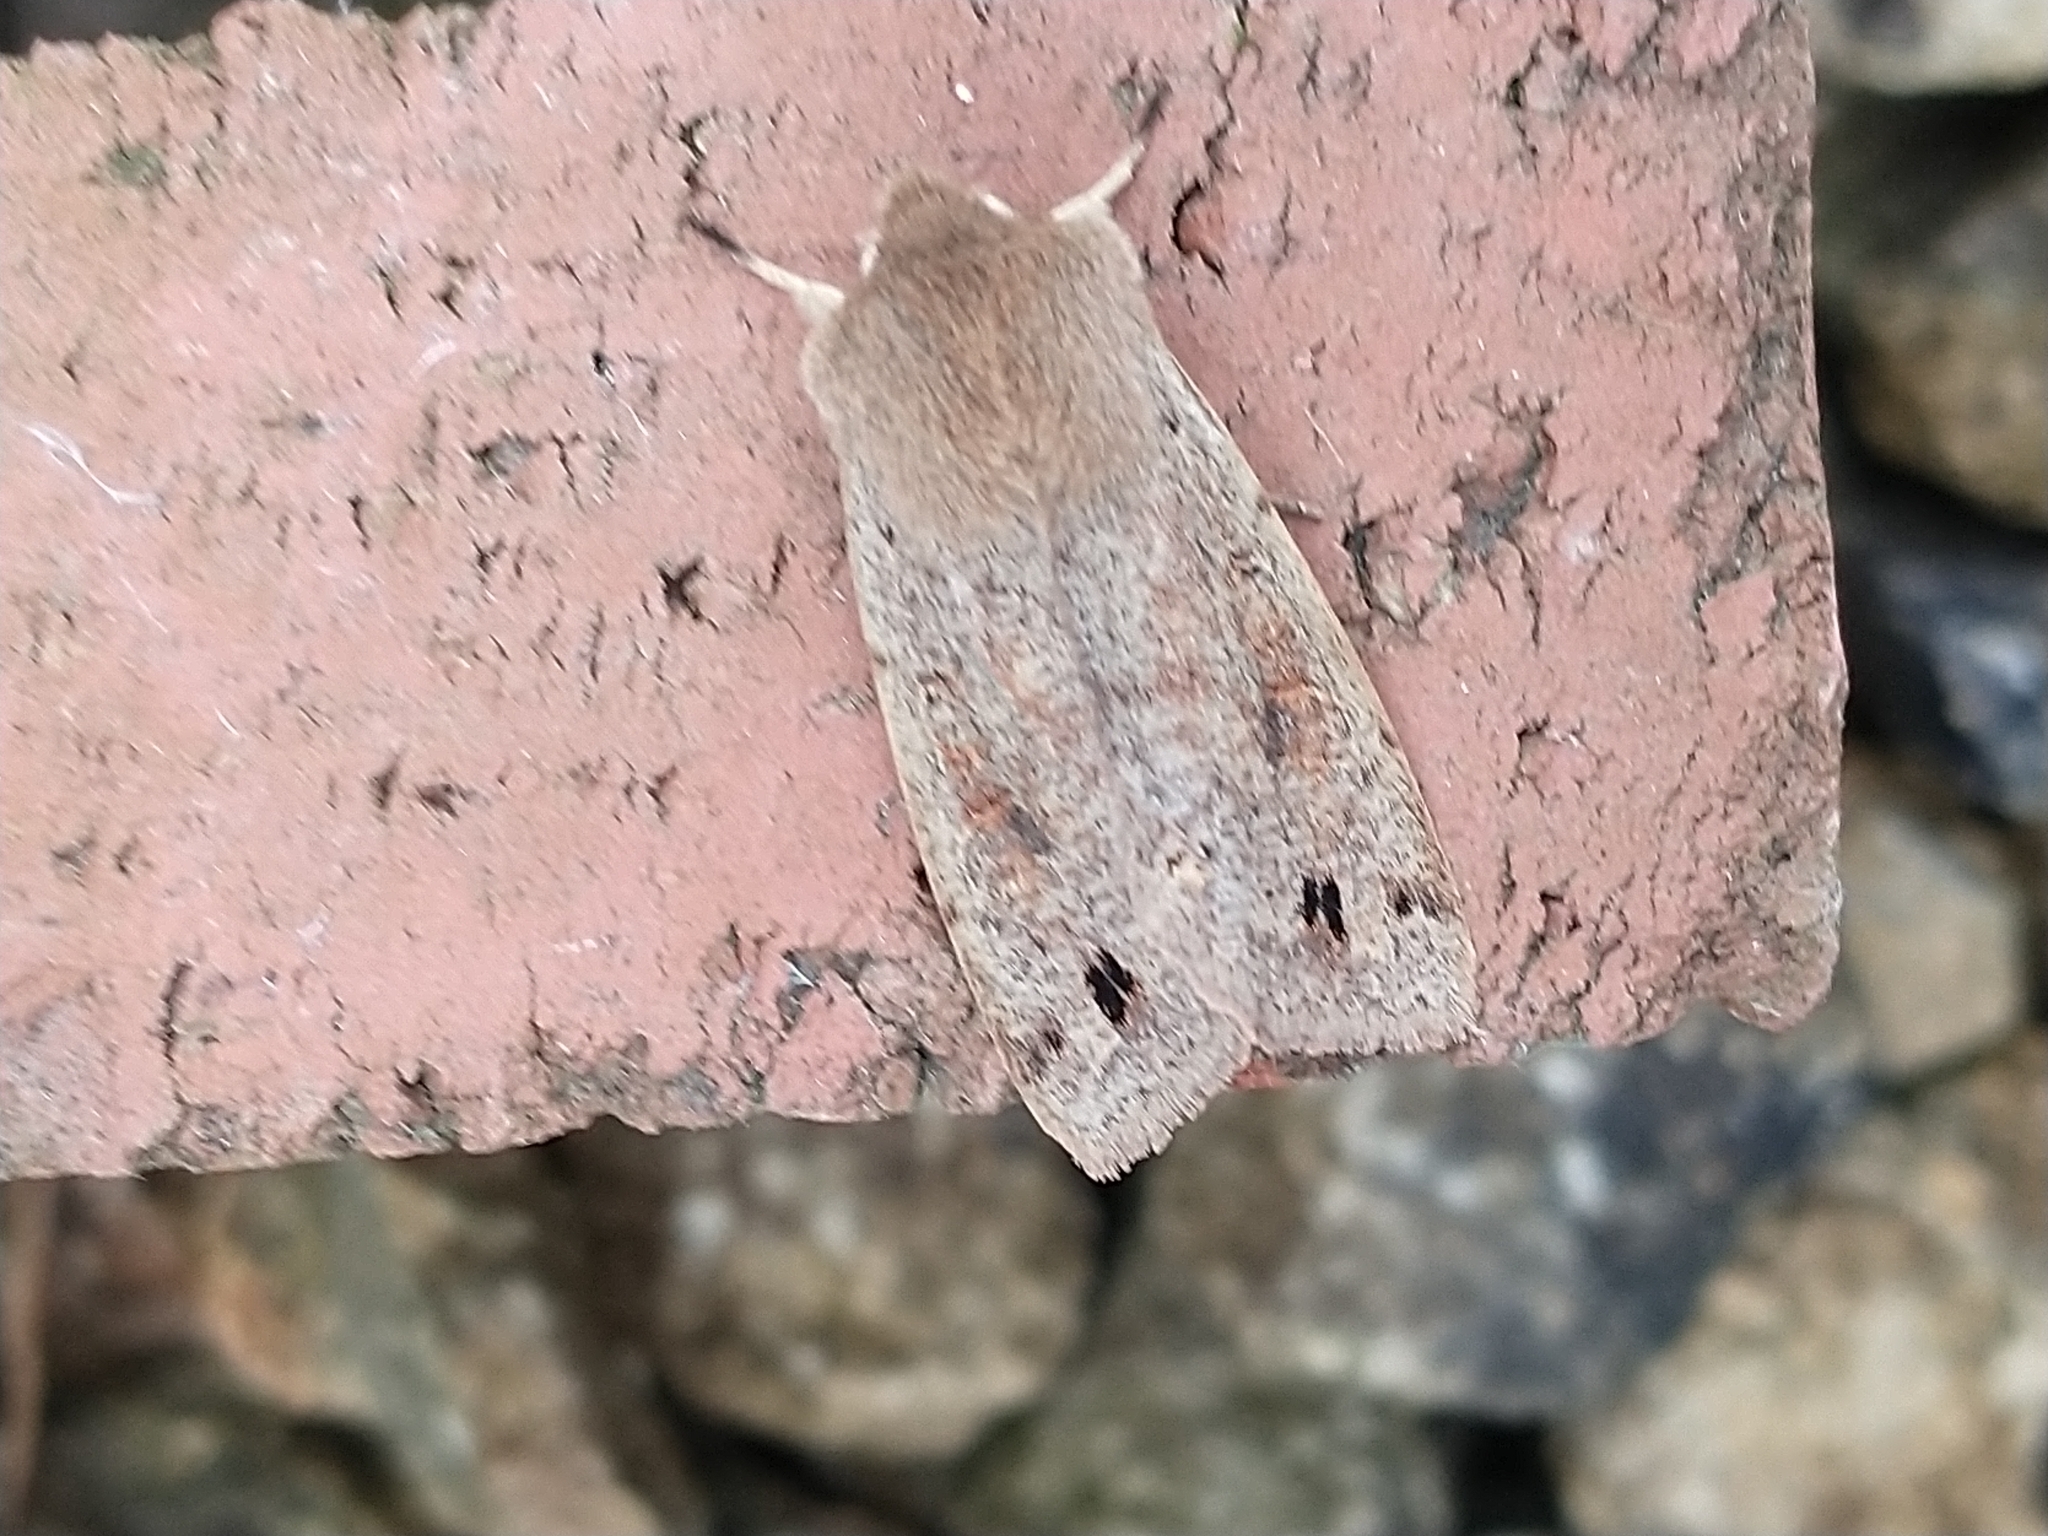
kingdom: Animalia
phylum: Arthropoda
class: Insecta
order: Lepidoptera
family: Noctuidae
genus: Anorthoa
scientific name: Anorthoa munda
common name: Twin-spotted quaker
